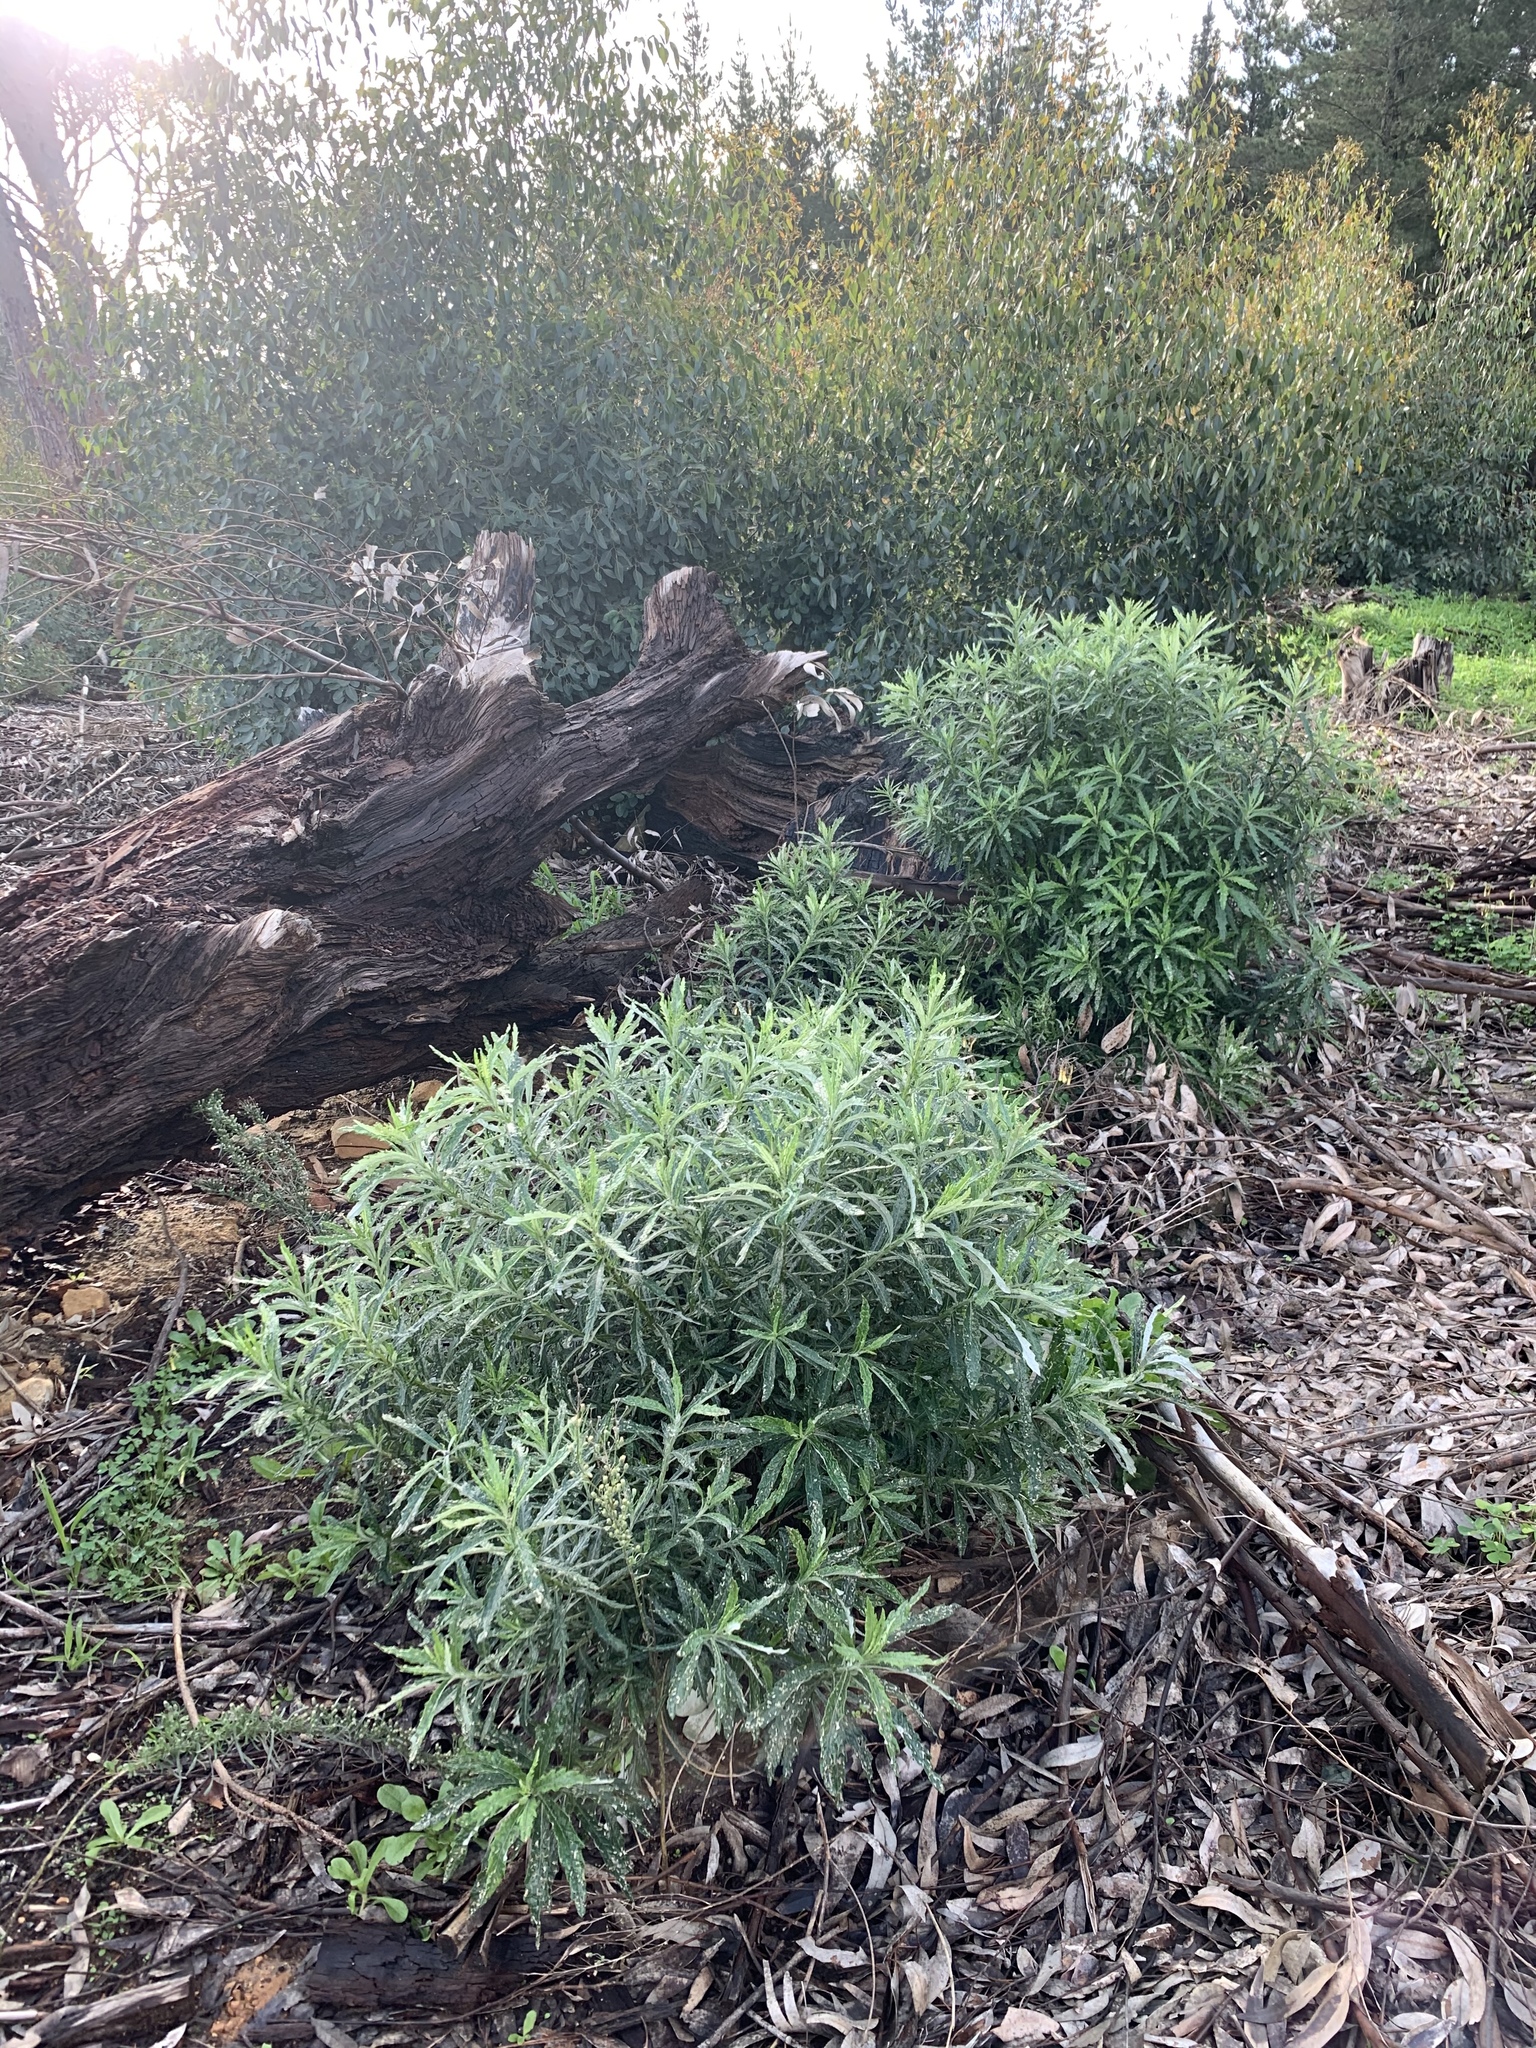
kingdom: Plantae
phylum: Tracheophyta
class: Magnoliopsida
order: Asterales
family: Asteraceae
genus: Senecio
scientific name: Senecio pterophorus
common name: Shoddy ragwort
